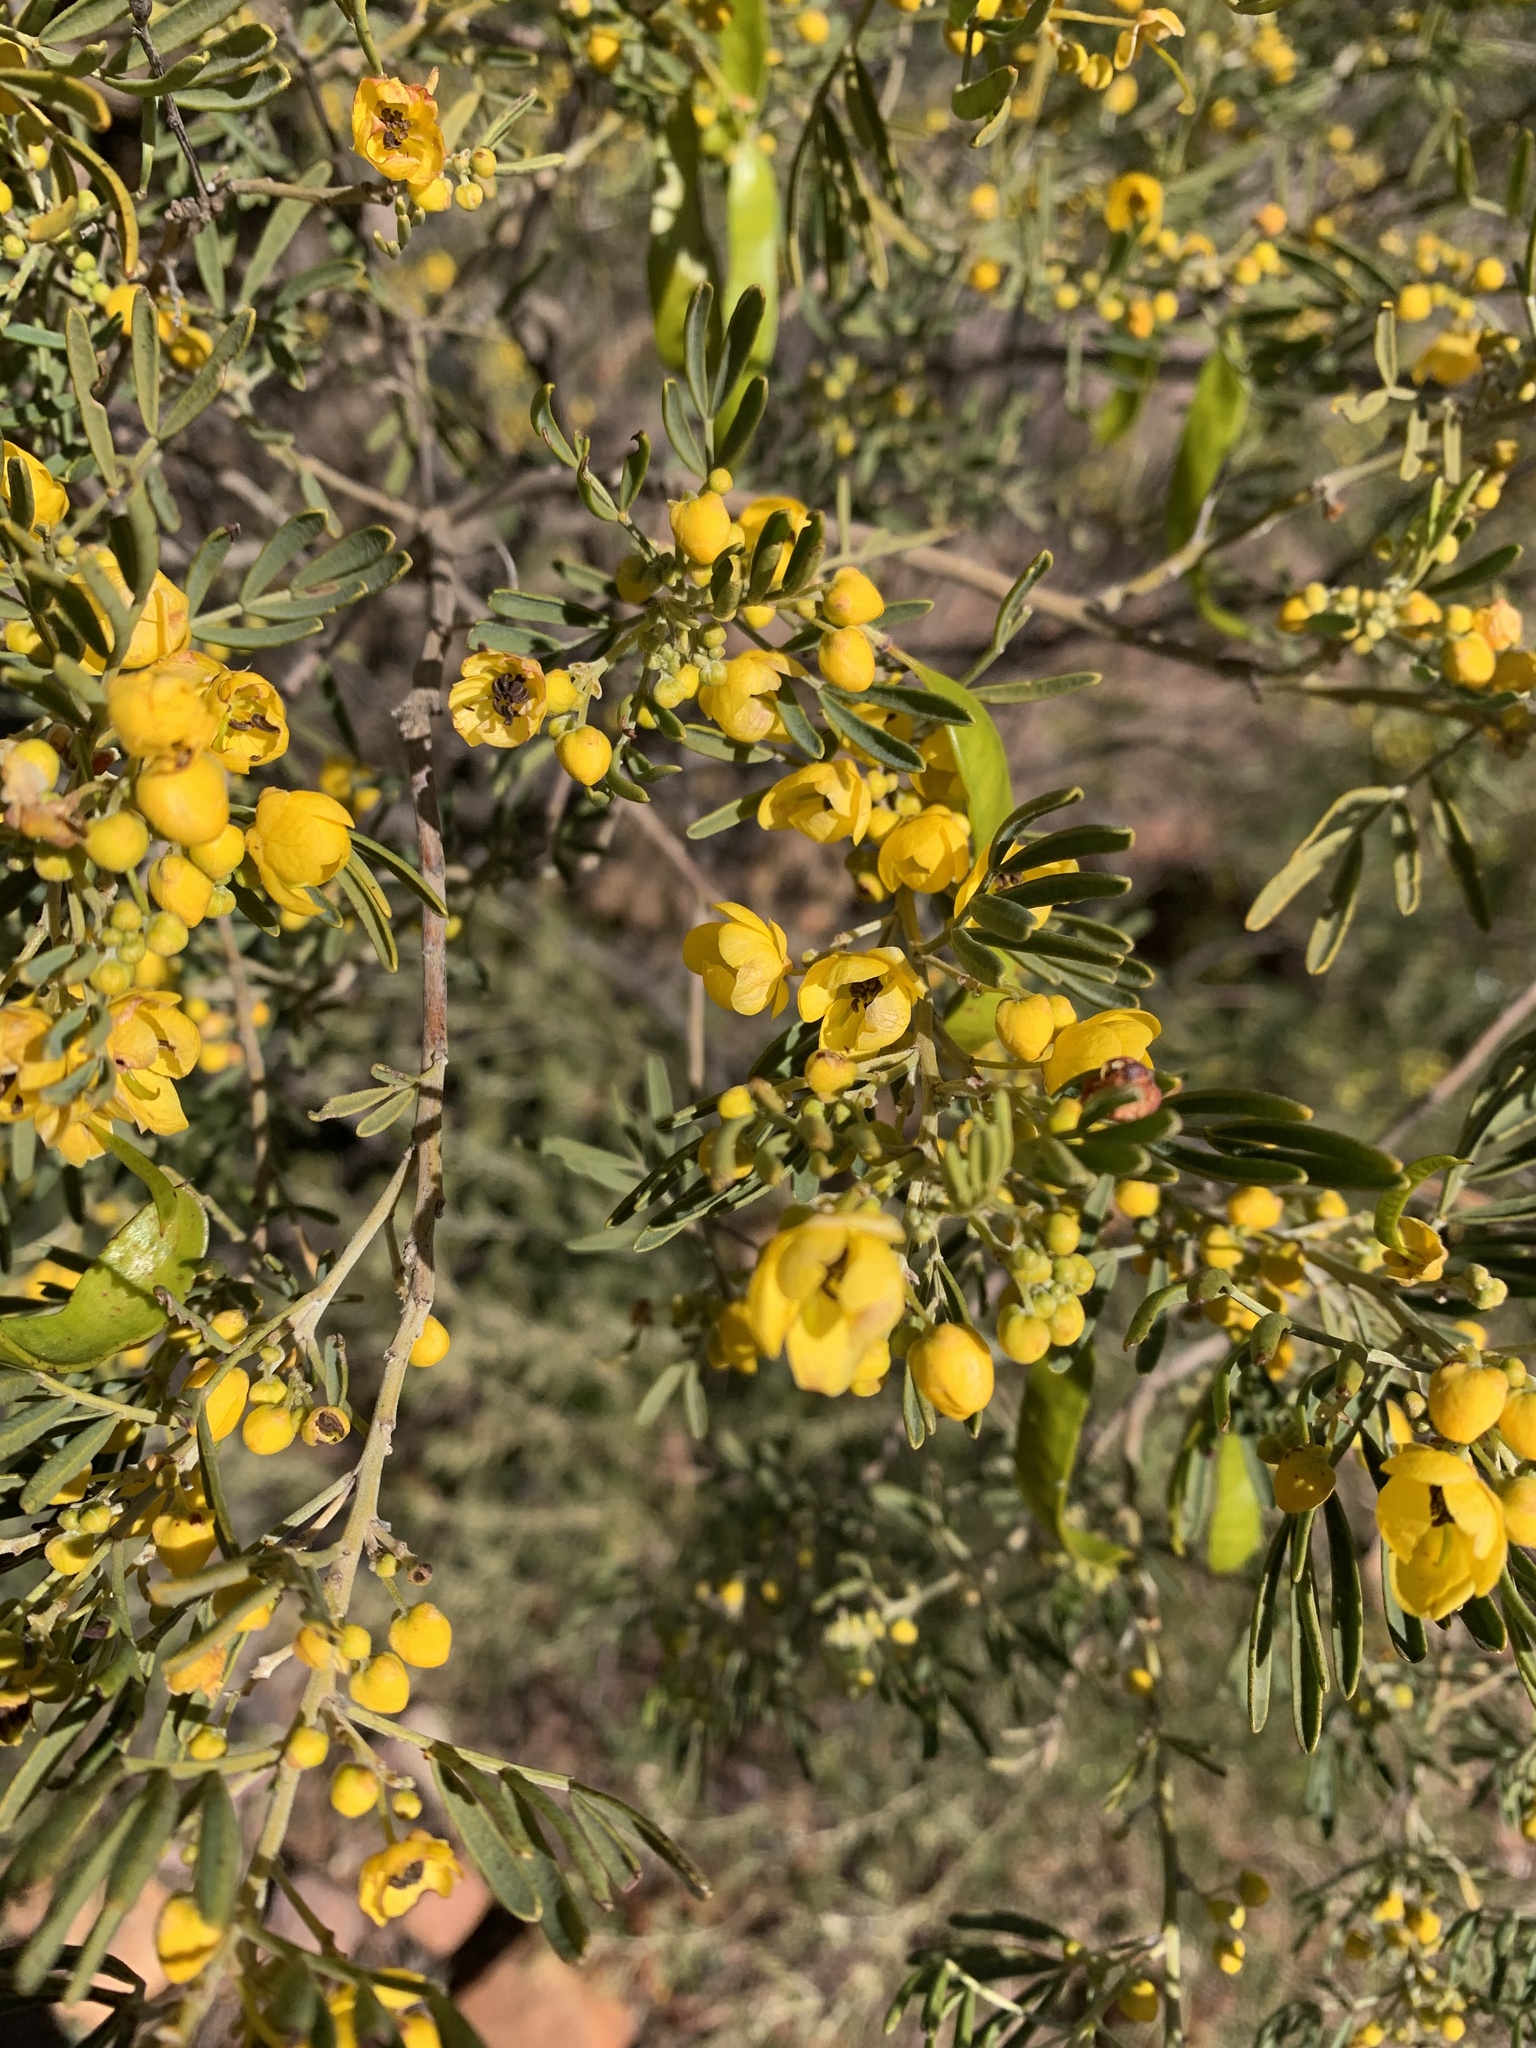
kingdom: Plantae
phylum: Tracheophyta
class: Magnoliopsida
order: Fabales
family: Fabaceae
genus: Senna
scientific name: Senna artemisioides
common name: Burnt-leaved acacia
